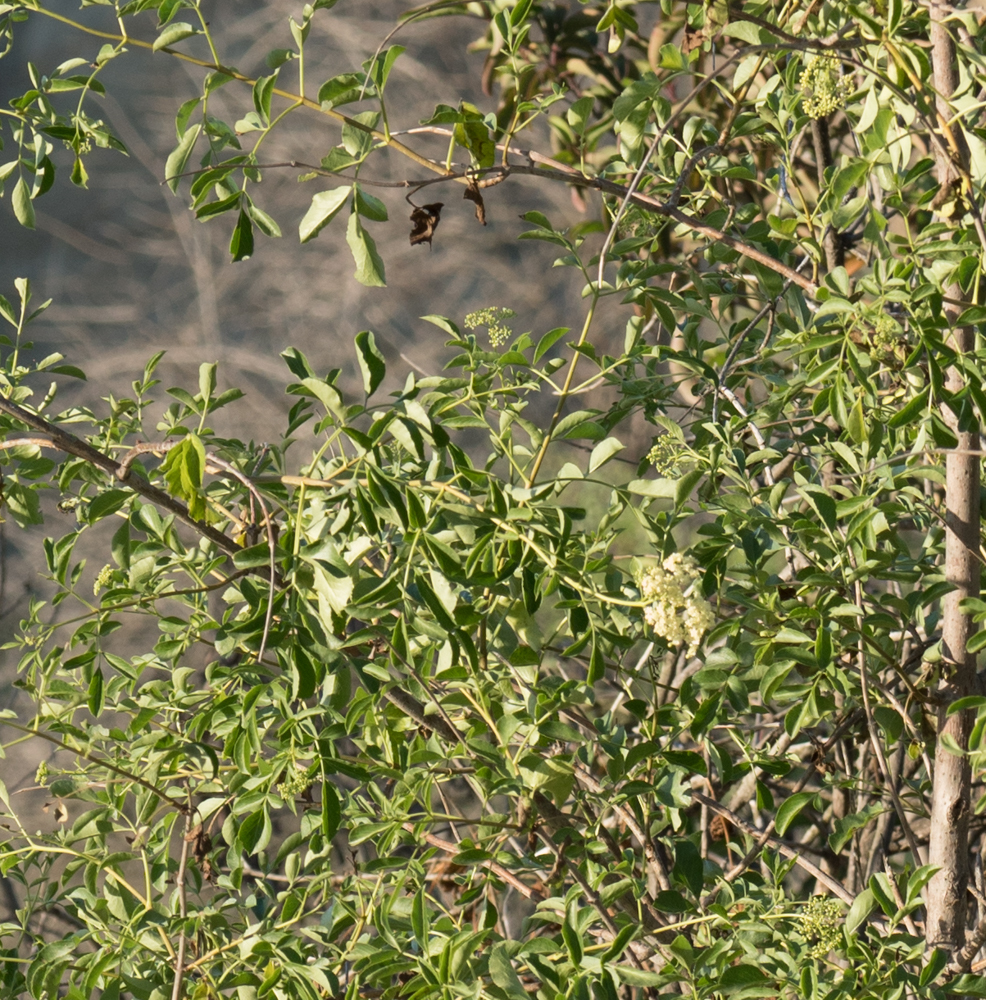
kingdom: Plantae
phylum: Tracheophyta
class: Magnoliopsida
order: Dipsacales
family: Viburnaceae
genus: Sambucus
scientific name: Sambucus cerulea
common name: Blue elder
